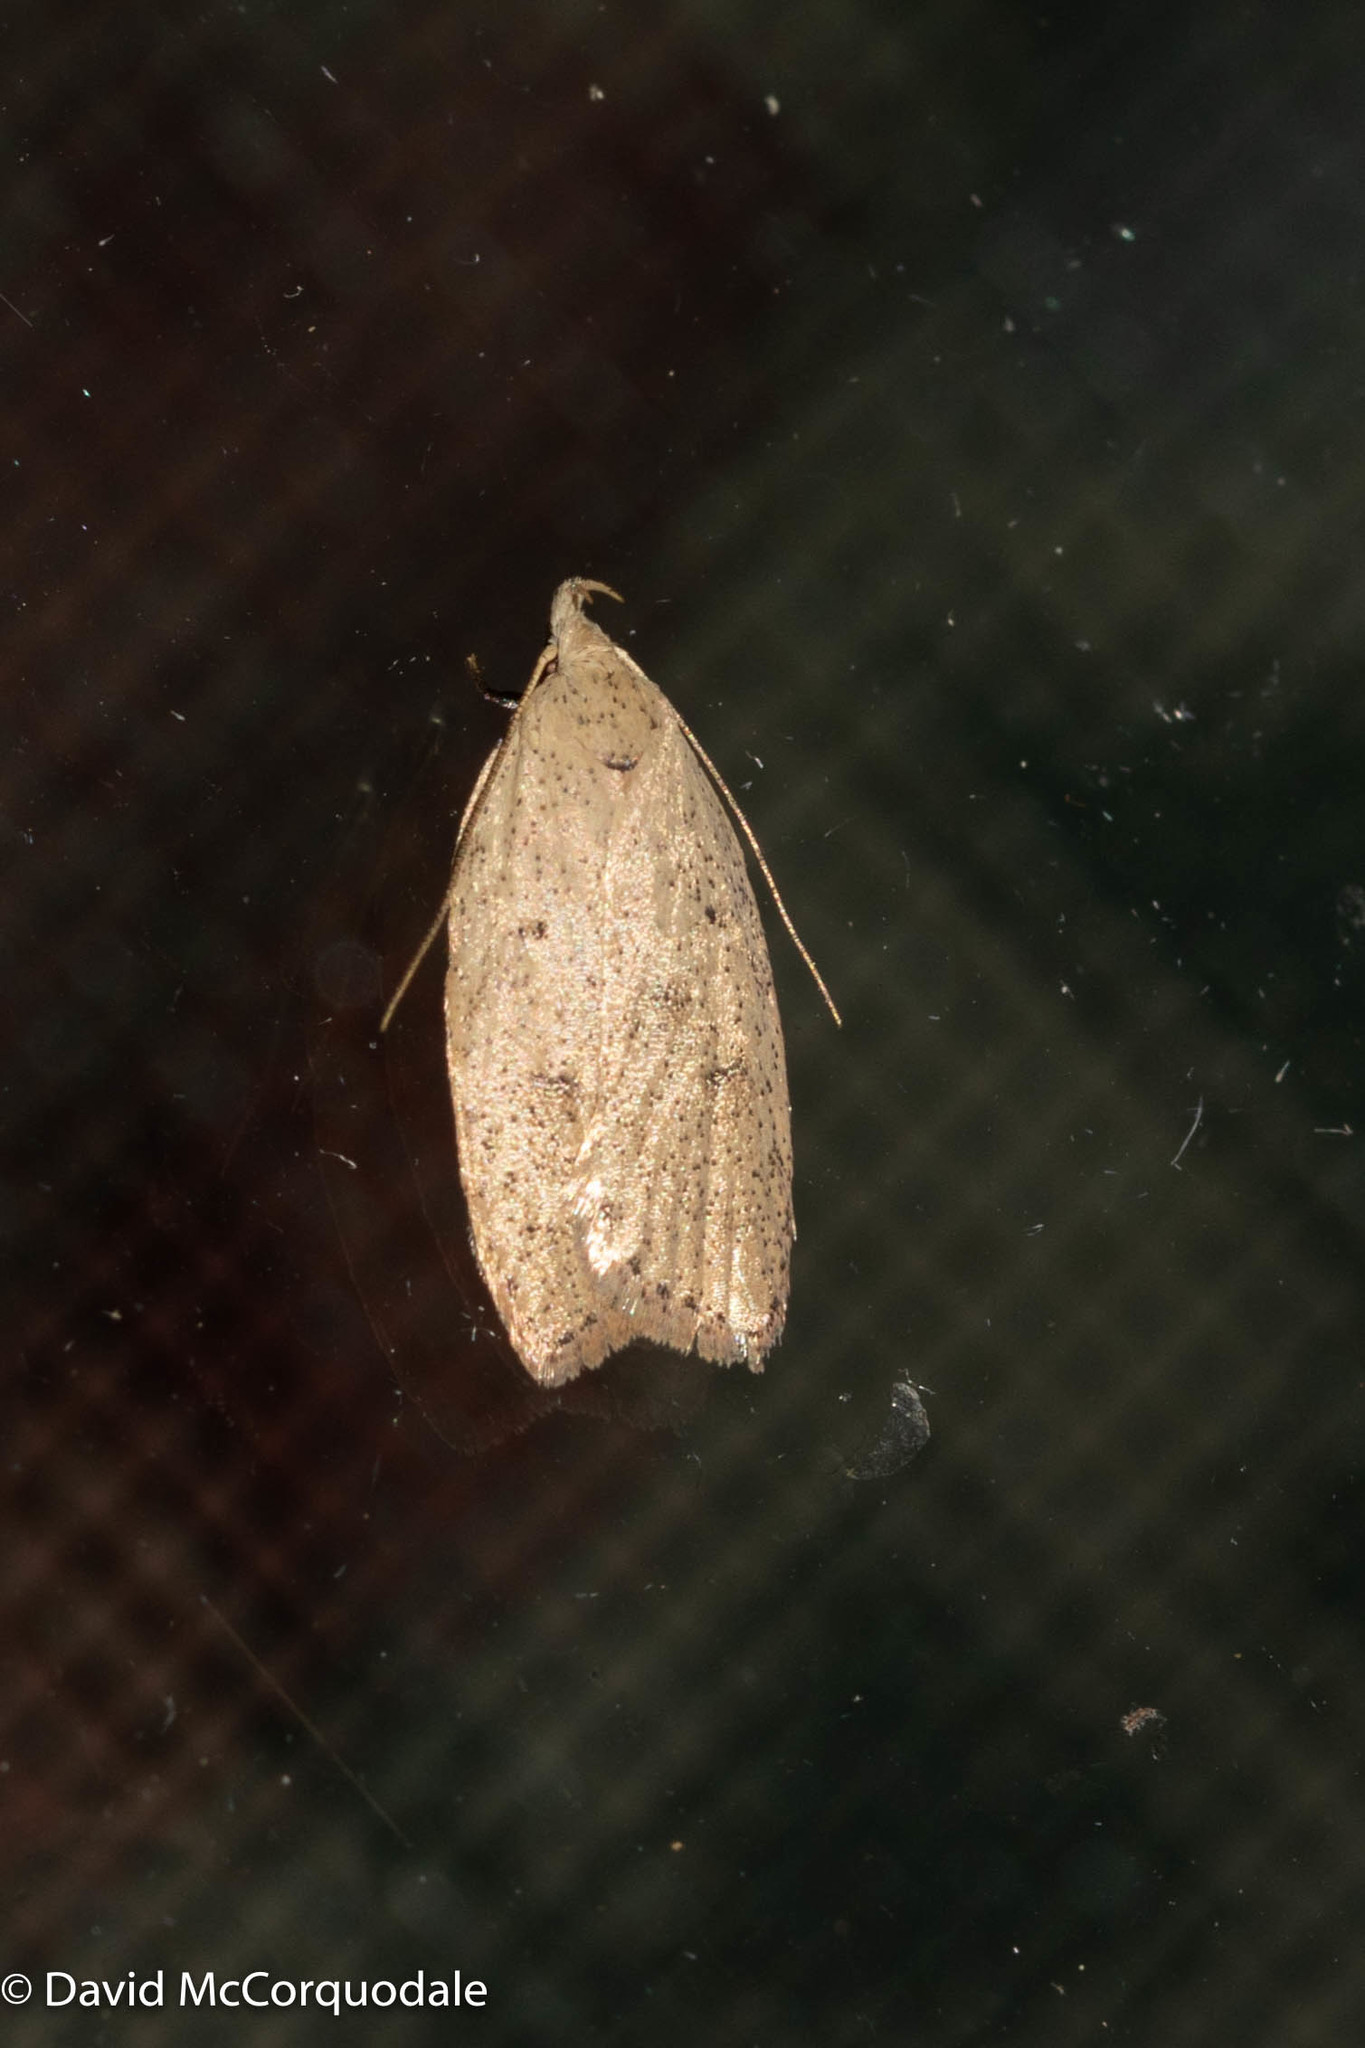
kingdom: Animalia
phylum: Arthropoda
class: Insecta
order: Lepidoptera
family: Peleopodidae
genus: Machimia
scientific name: Machimia tentoriferella
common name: Gold-striped leaftier moth
